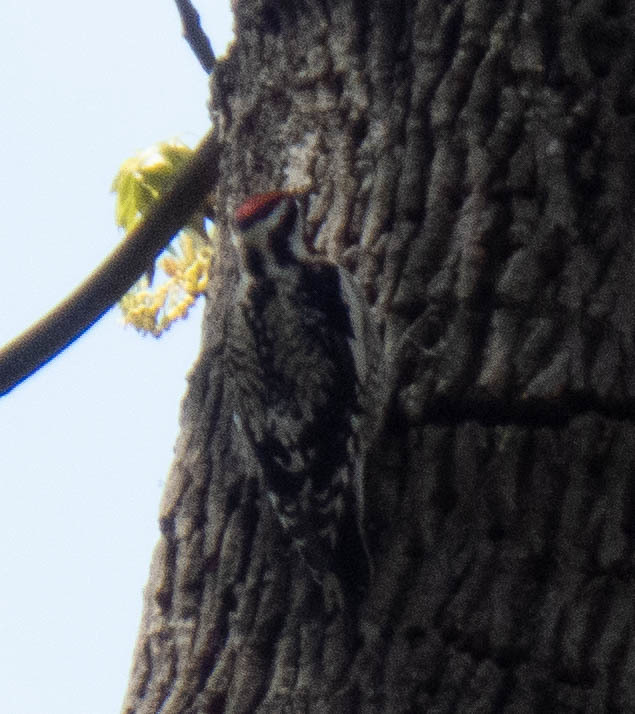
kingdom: Animalia
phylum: Chordata
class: Aves
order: Piciformes
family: Picidae
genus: Sphyrapicus
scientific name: Sphyrapicus varius
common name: Yellow-bellied sapsucker
